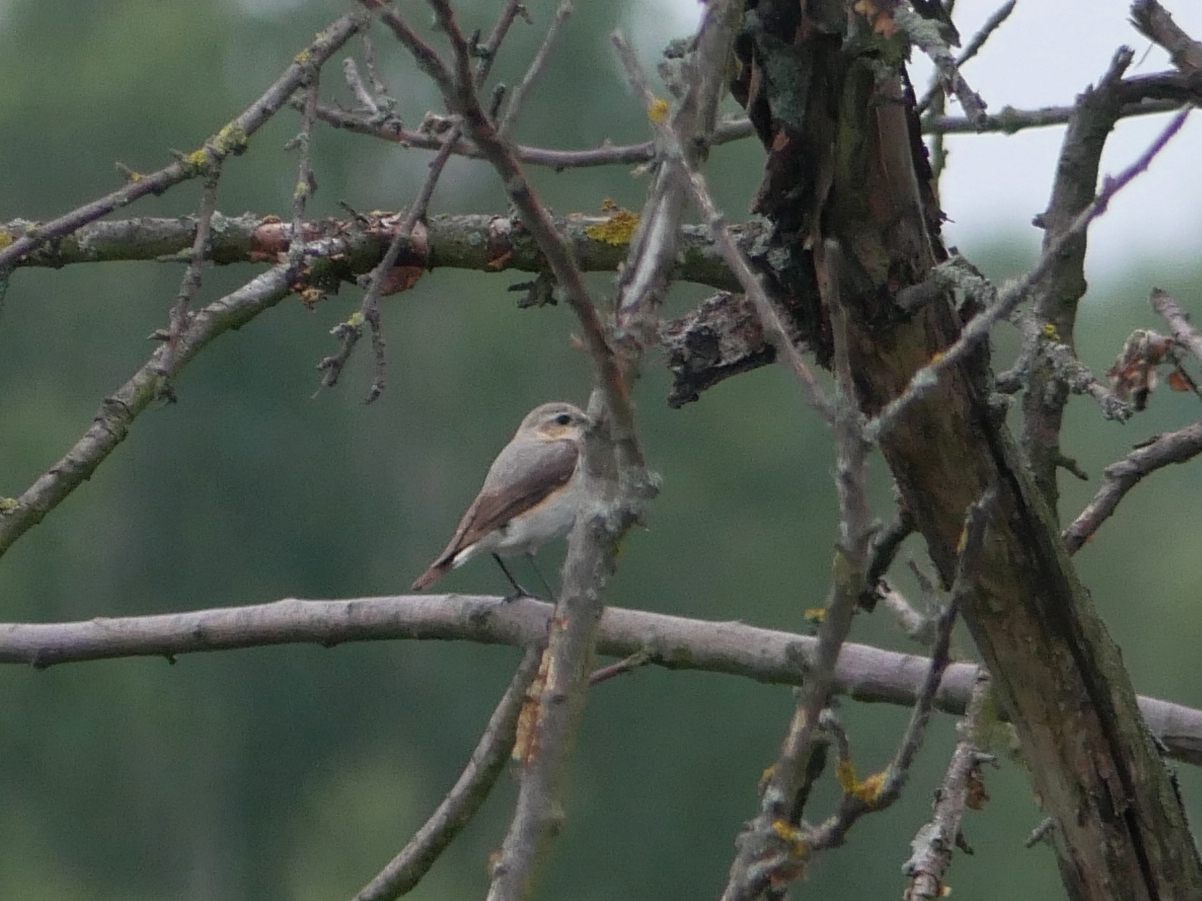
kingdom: Animalia
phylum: Chordata
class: Aves
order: Passeriformes
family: Muscicapidae
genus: Oenanthe
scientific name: Oenanthe oenanthe
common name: Northern wheatear
